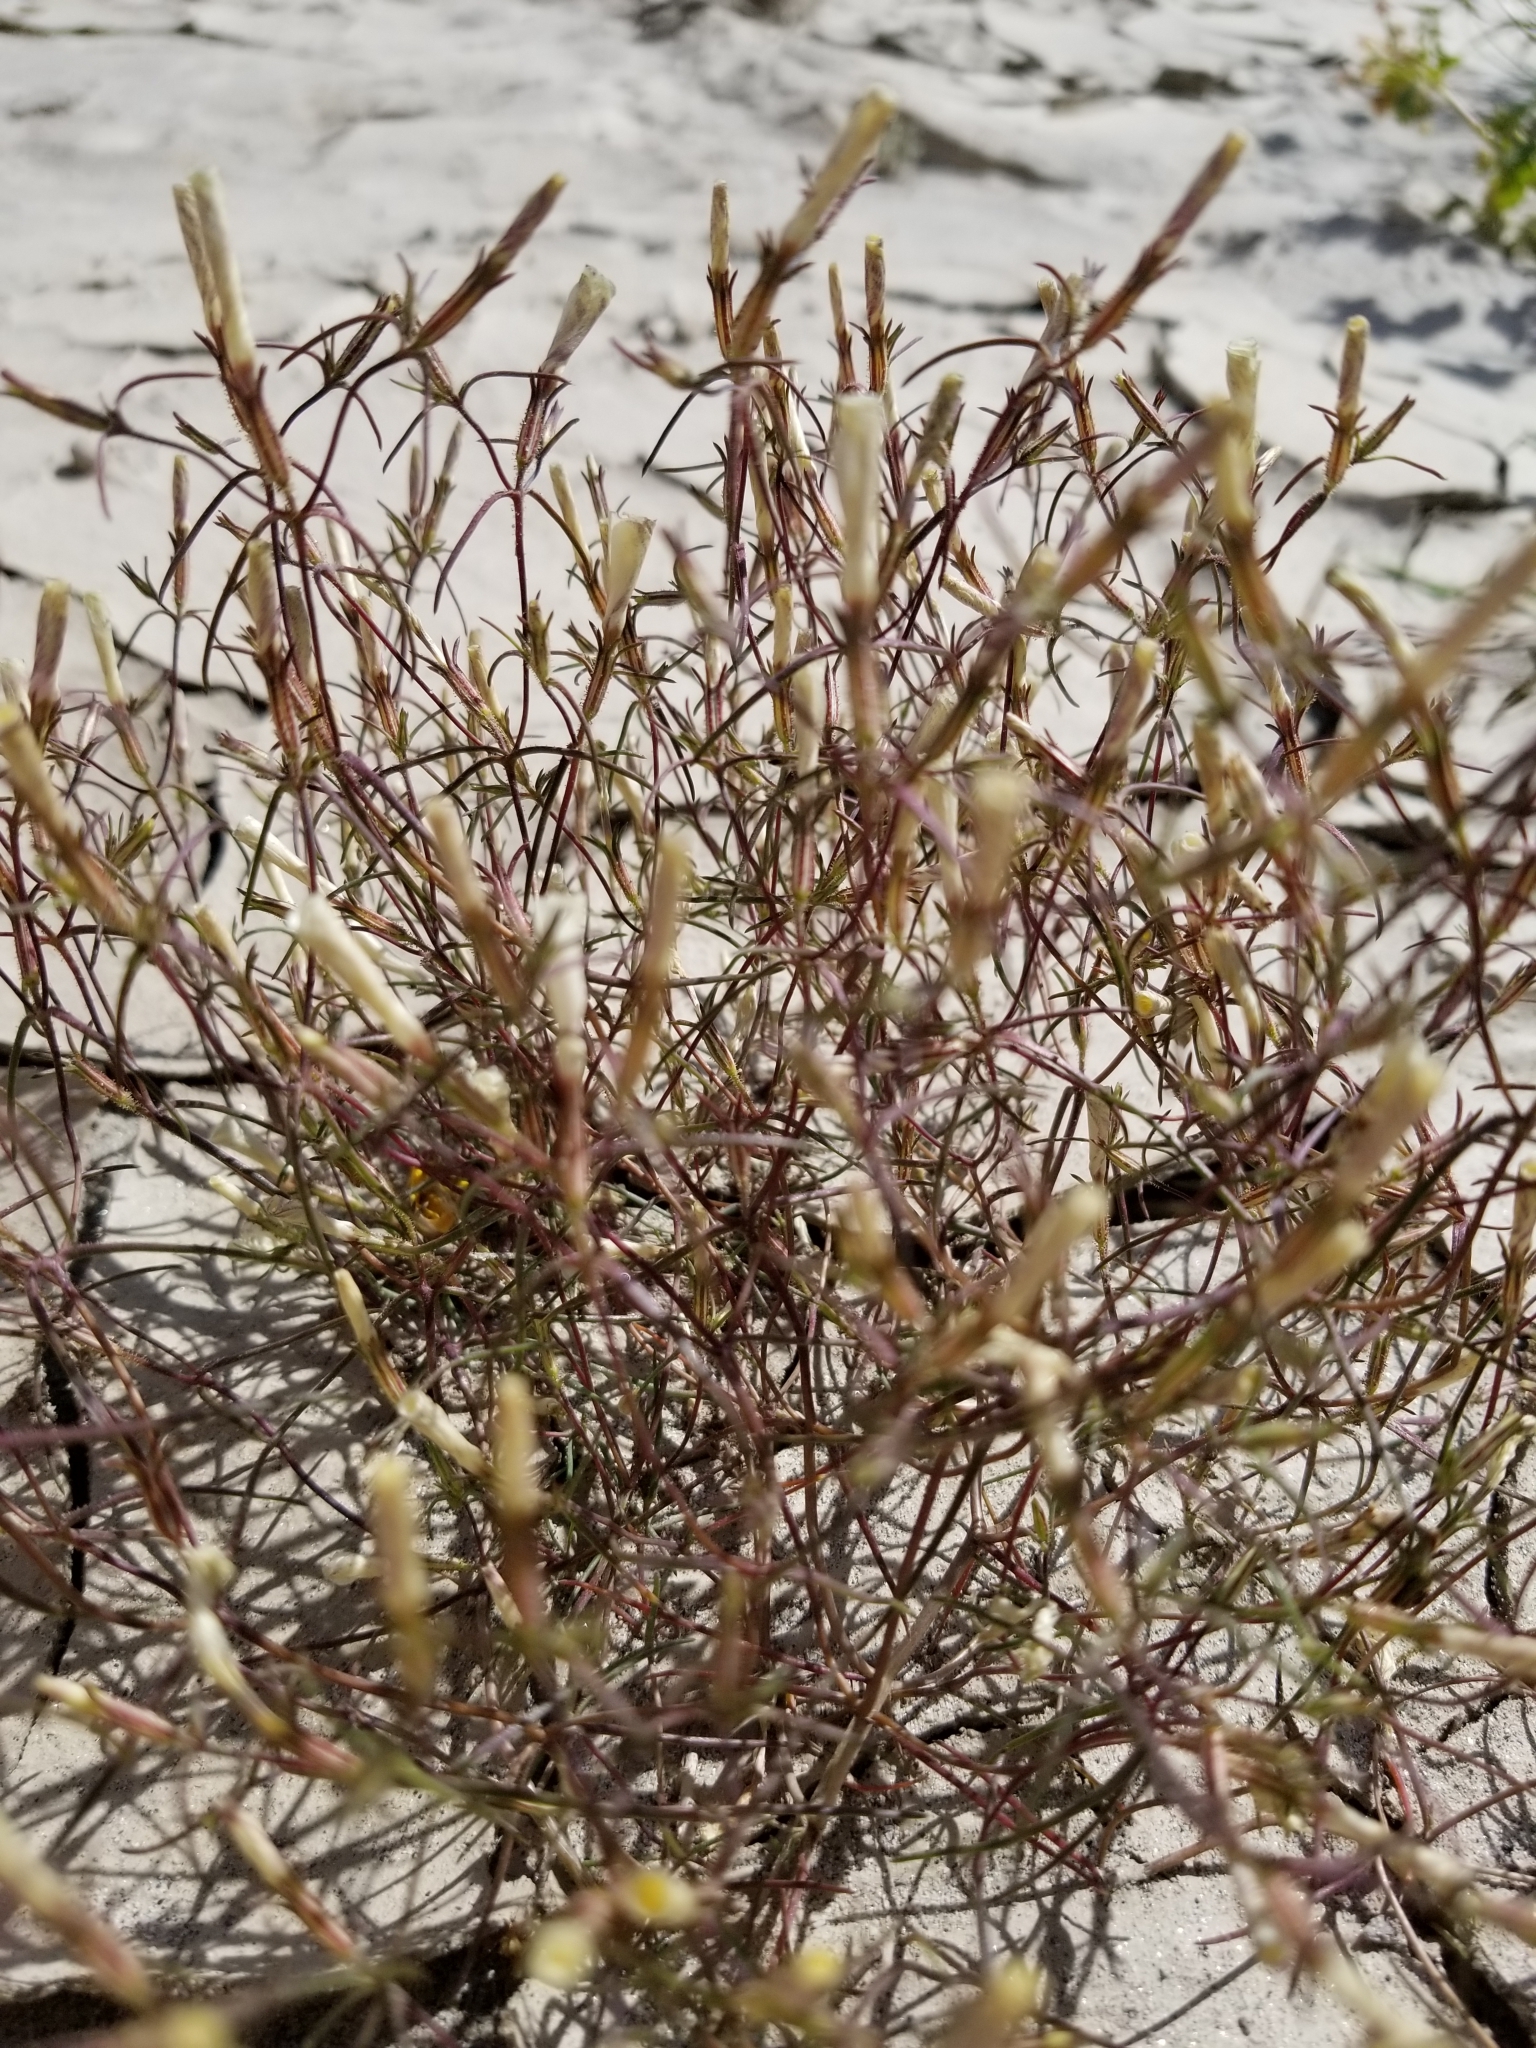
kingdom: Plantae
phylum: Tracheophyta
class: Magnoliopsida
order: Ericales
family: Polemoniaceae
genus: Linanthus
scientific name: Linanthus jonesii
